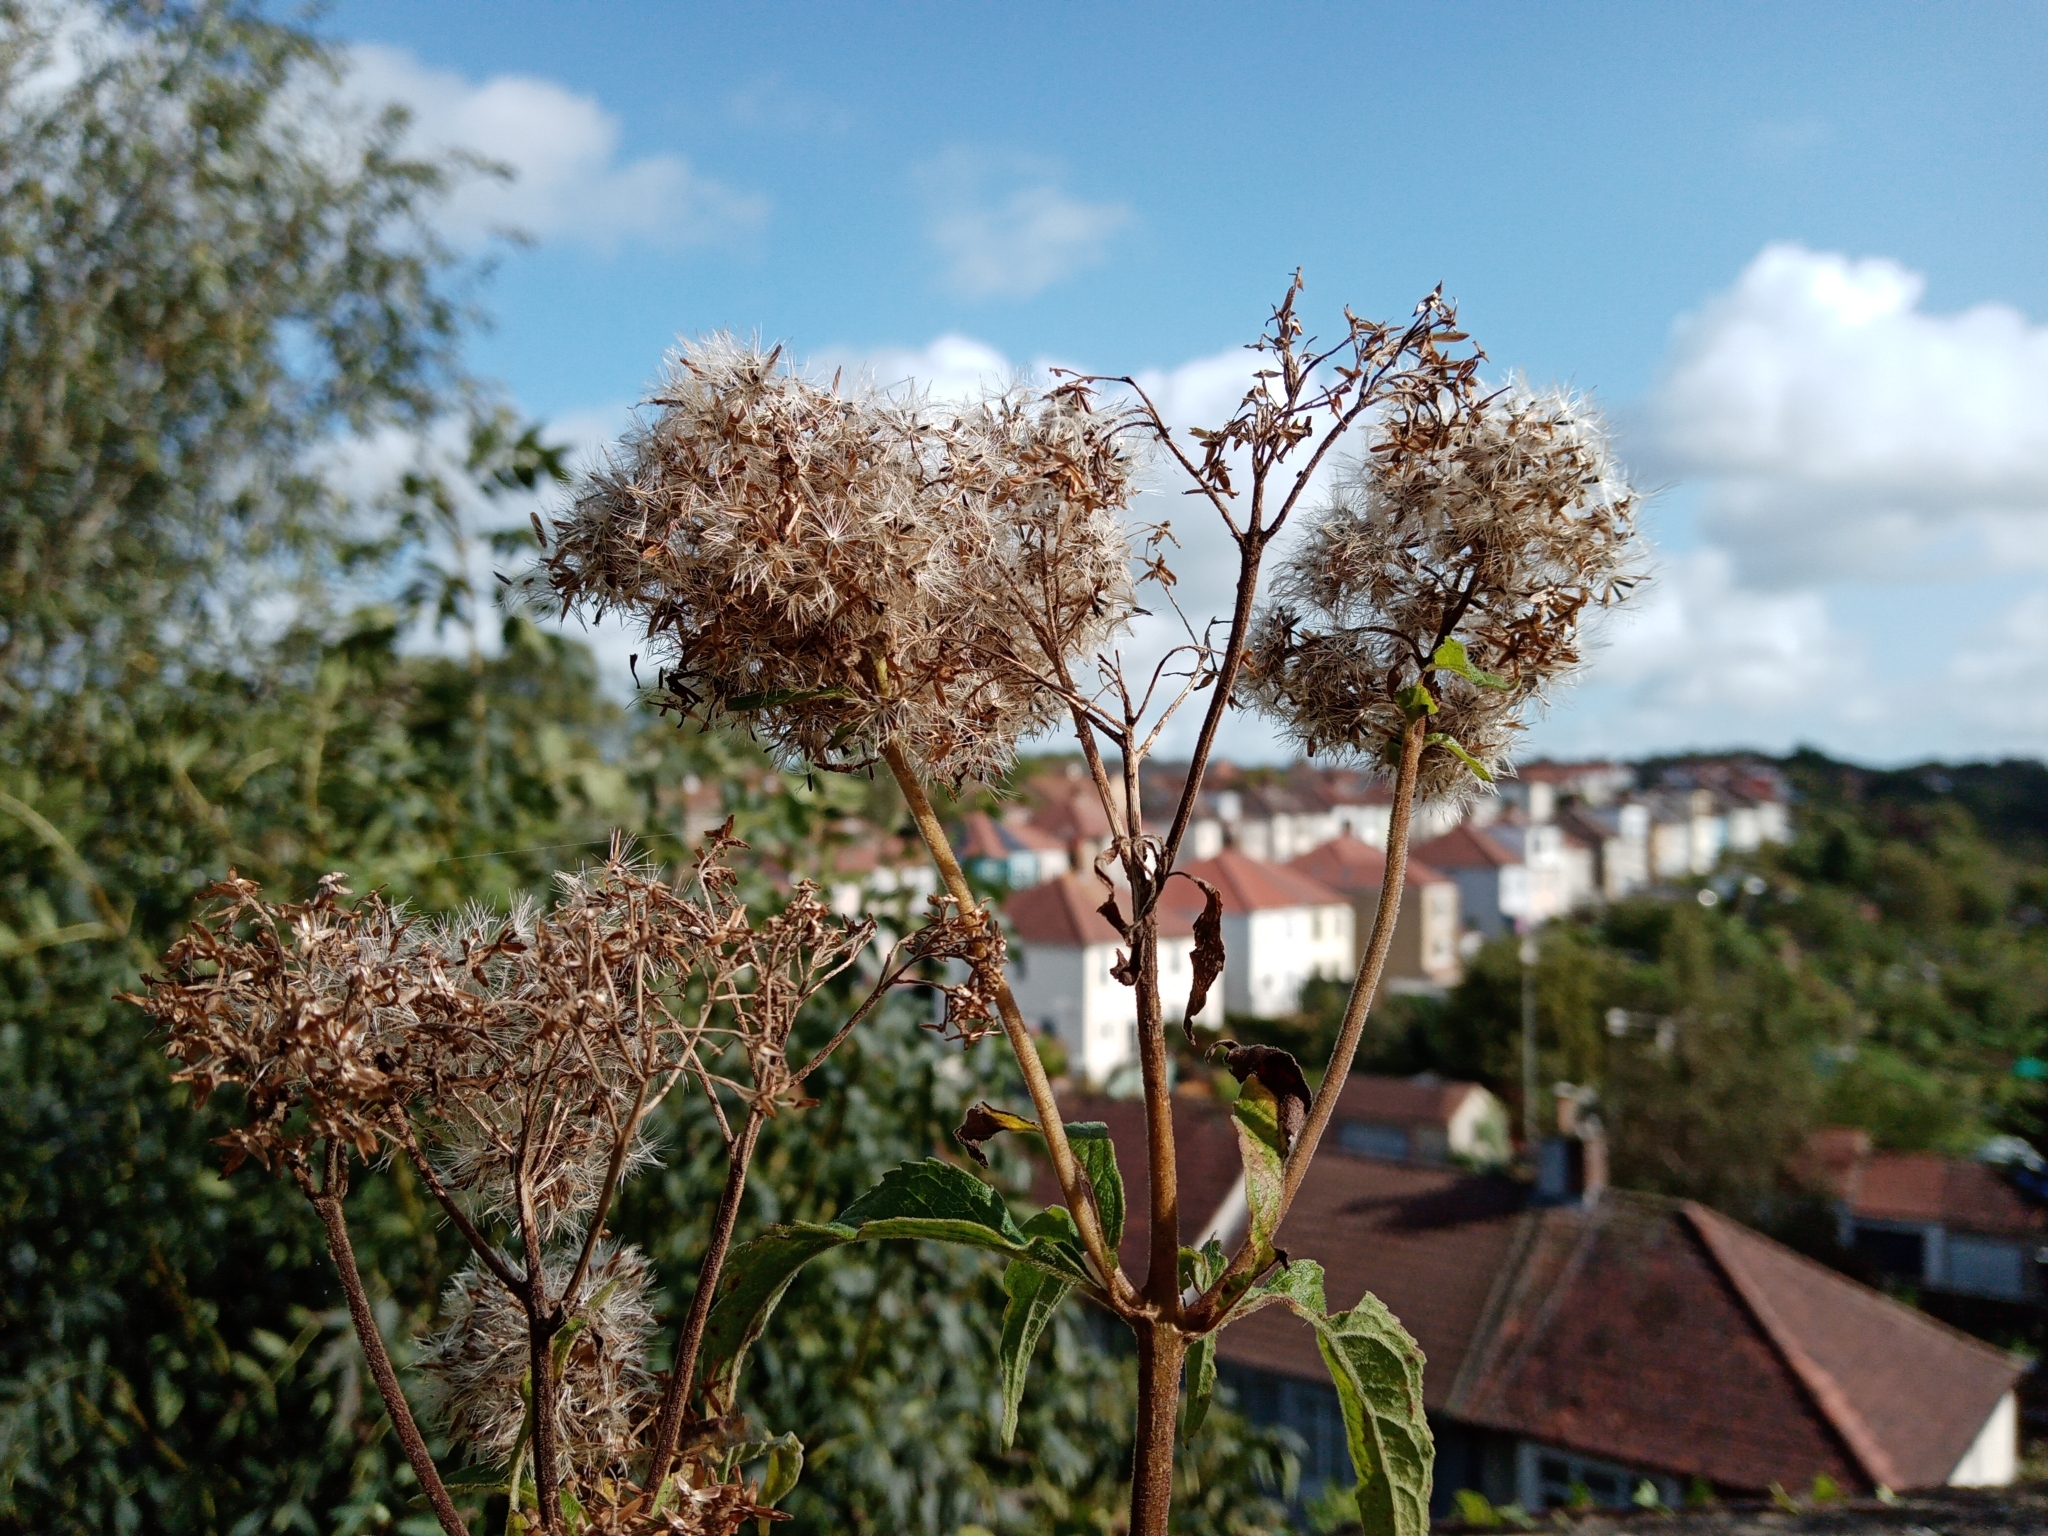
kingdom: Plantae
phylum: Tracheophyta
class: Magnoliopsida
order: Asterales
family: Asteraceae
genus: Eupatorium
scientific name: Eupatorium cannabinum
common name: Hemp-agrimony
